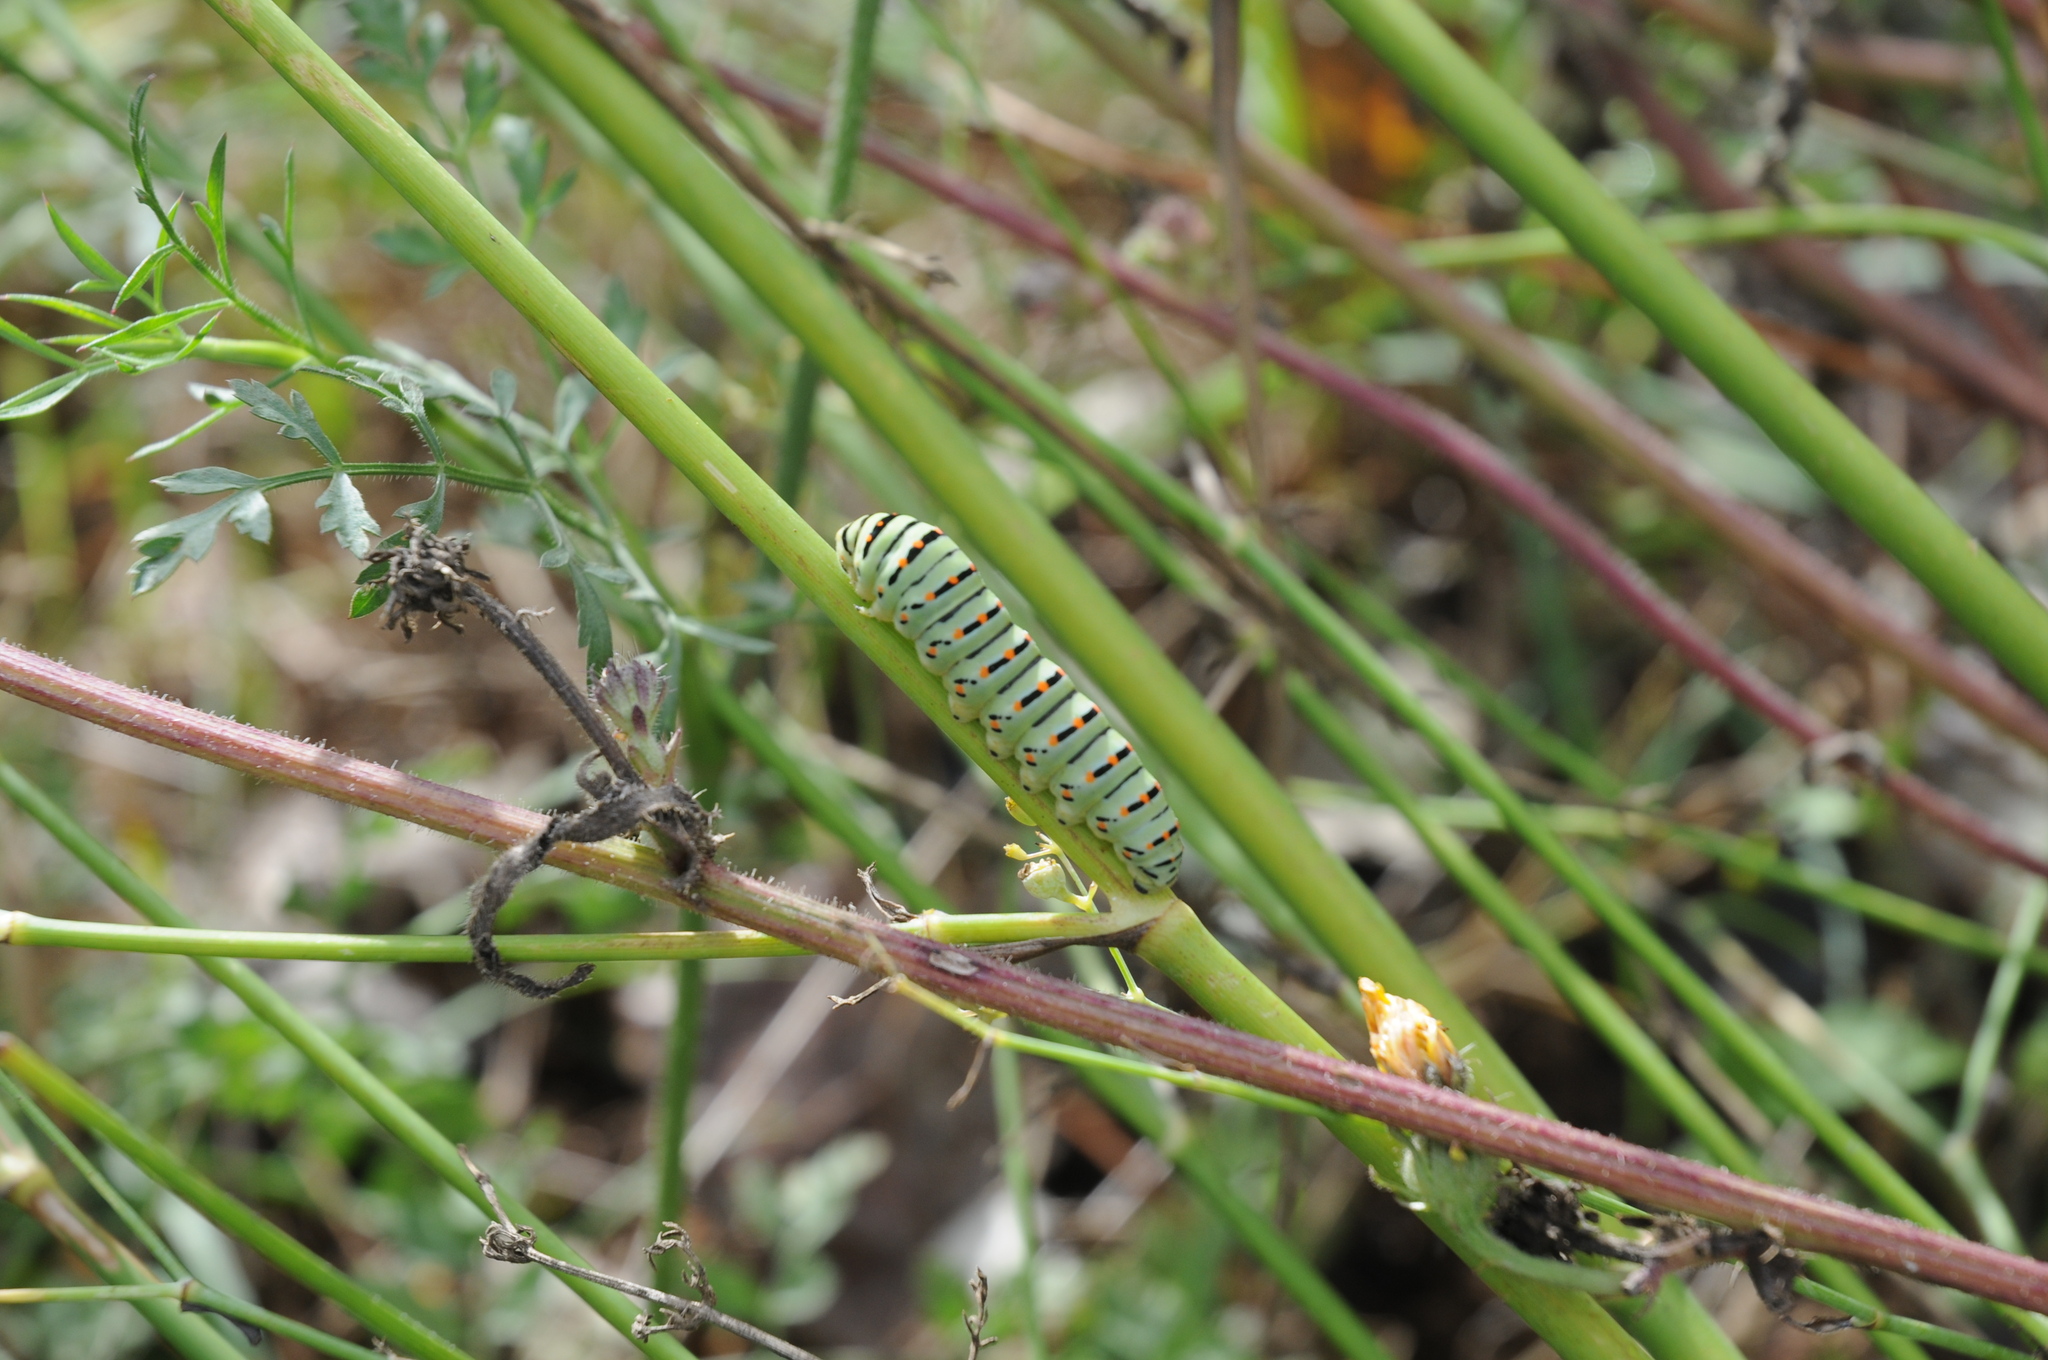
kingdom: Animalia
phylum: Arthropoda
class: Insecta
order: Lepidoptera
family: Papilionidae
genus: Papilio
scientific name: Papilio machaon
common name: Swallowtail
